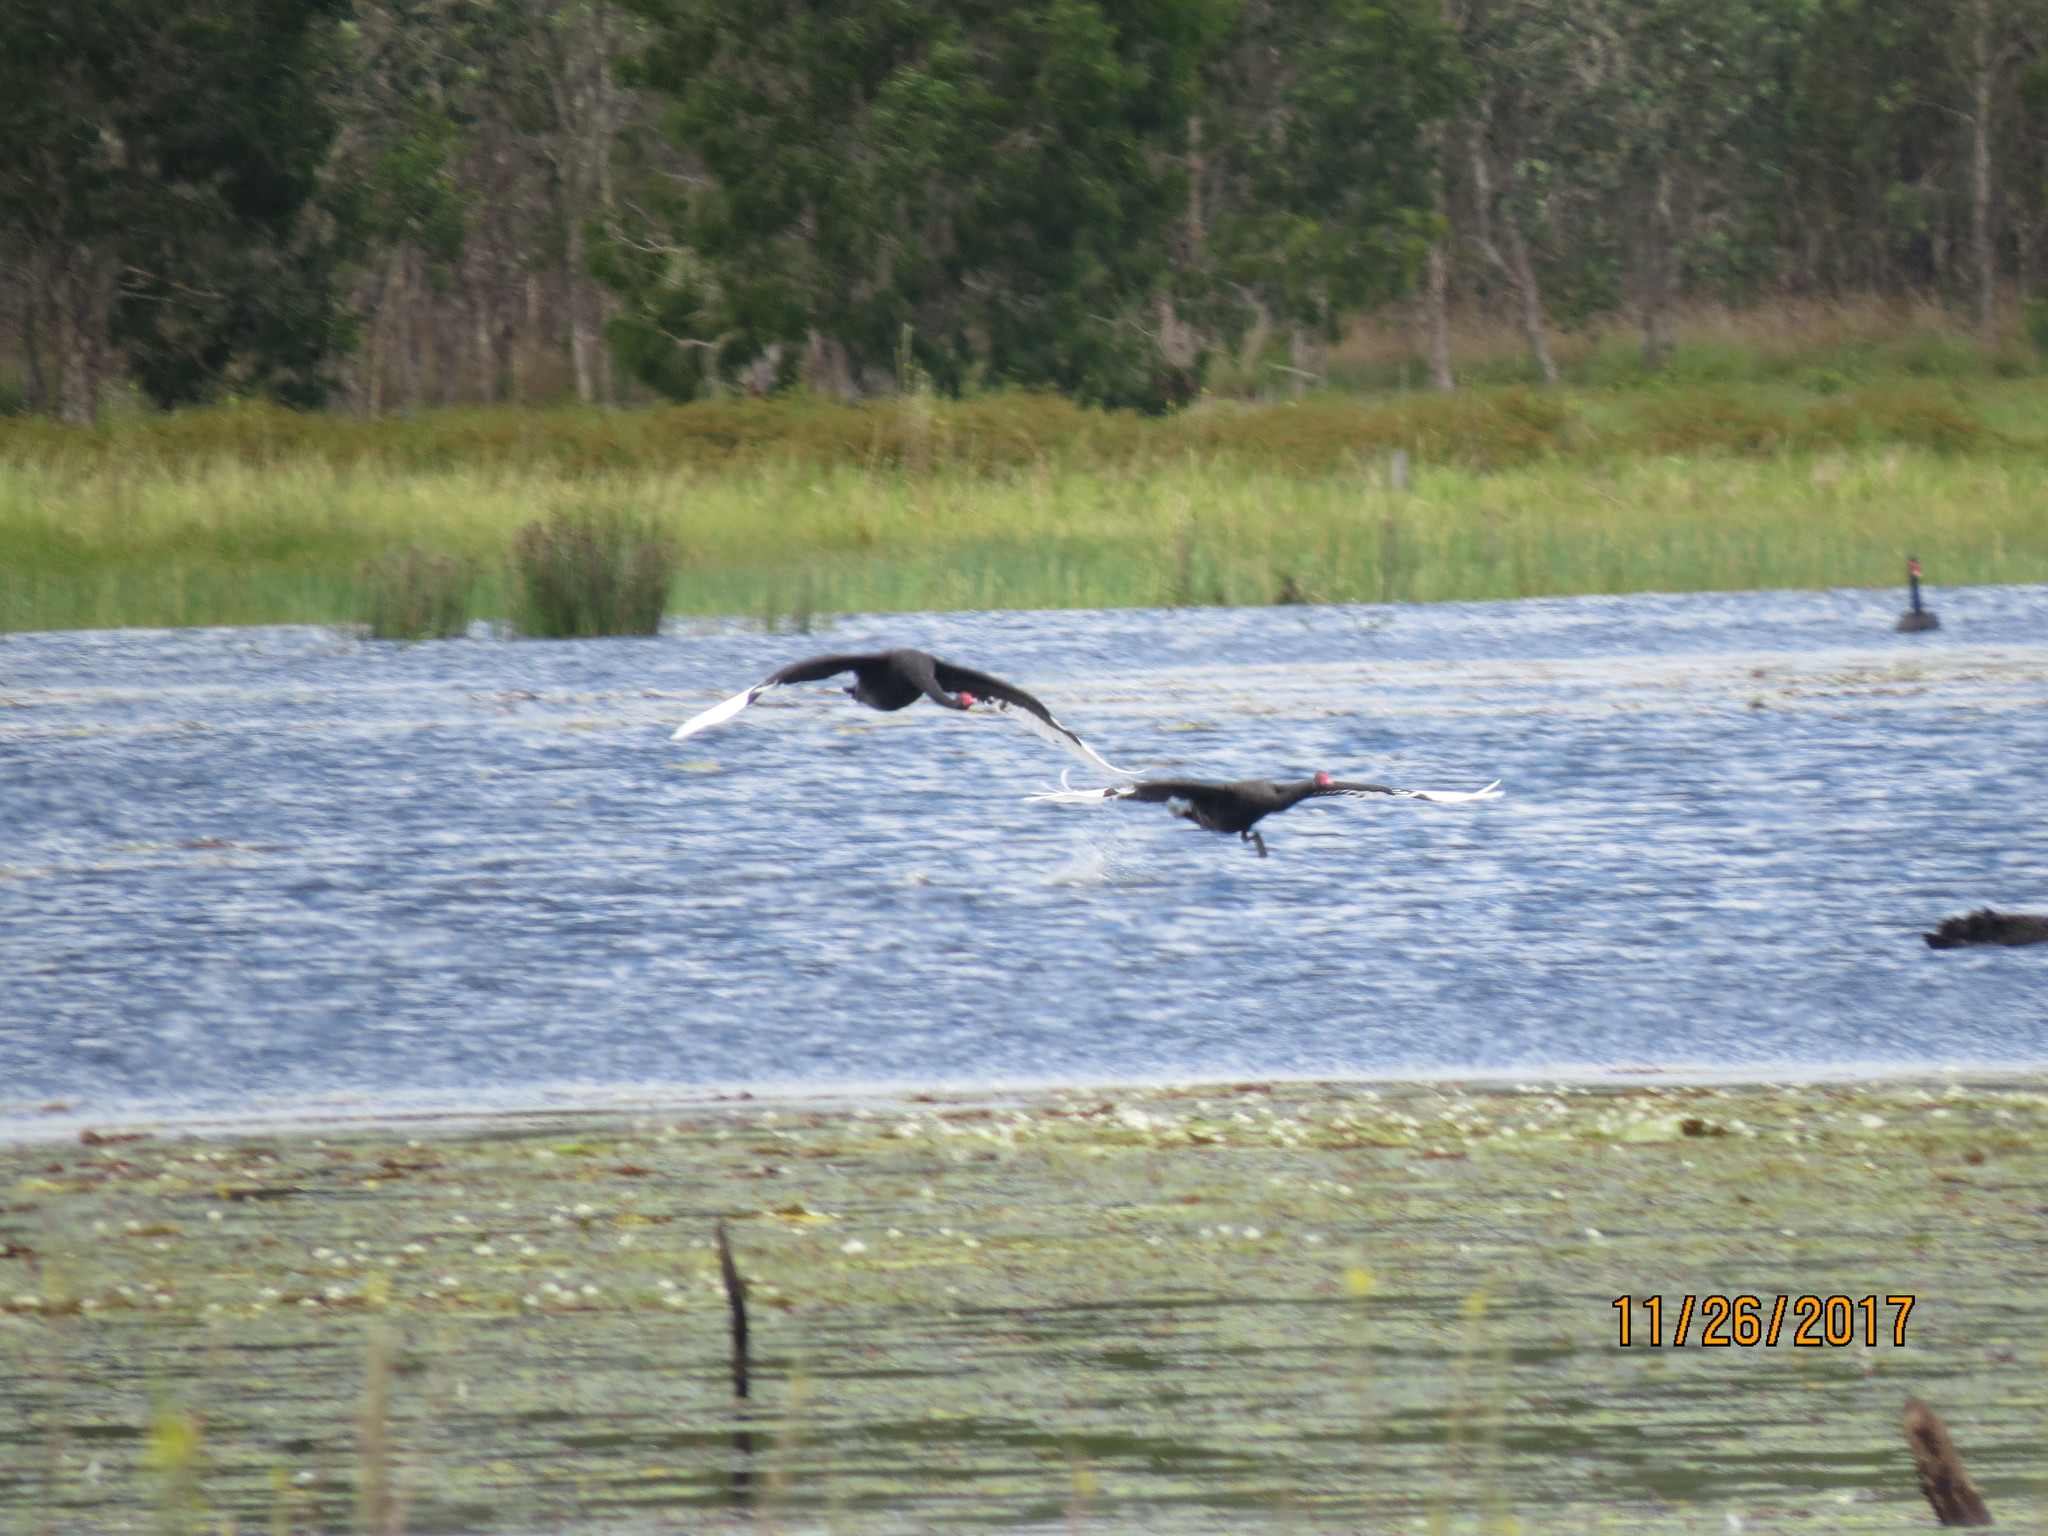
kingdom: Animalia
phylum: Chordata
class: Aves
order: Anseriformes
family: Anatidae
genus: Cygnus
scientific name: Cygnus atratus
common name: Black swan
